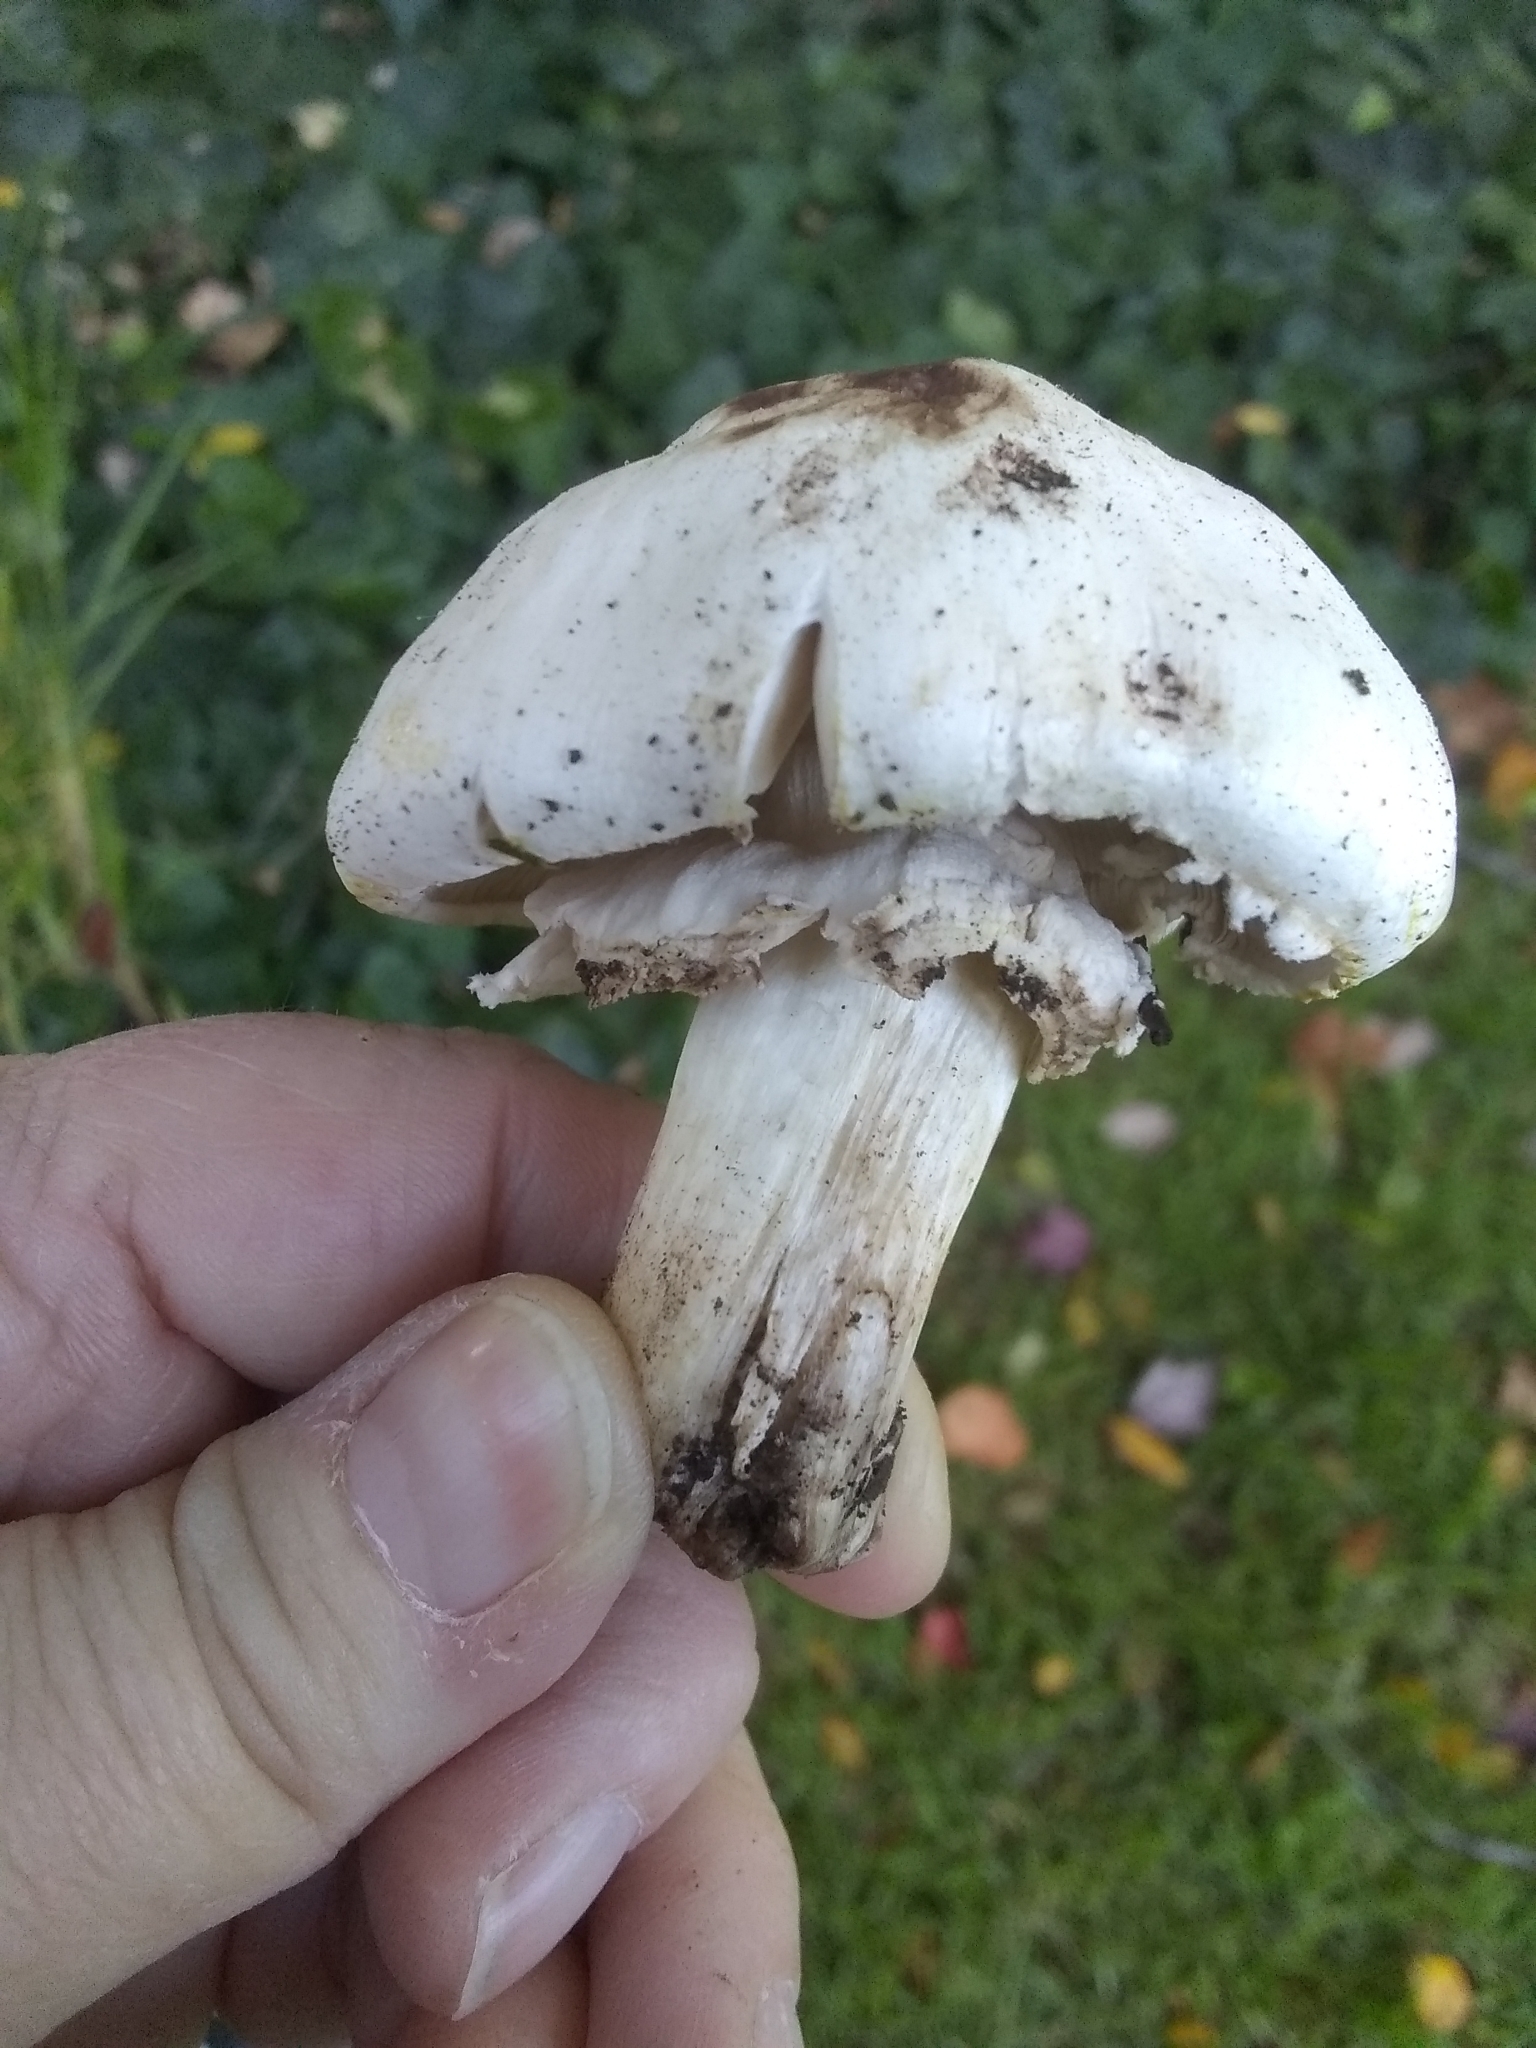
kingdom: Fungi
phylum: Basidiomycota
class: Agaricomycetes
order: Agaricales
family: Agaricaceae
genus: Agaricus
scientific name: Agaricus xanthodermus
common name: Yellow stainer
